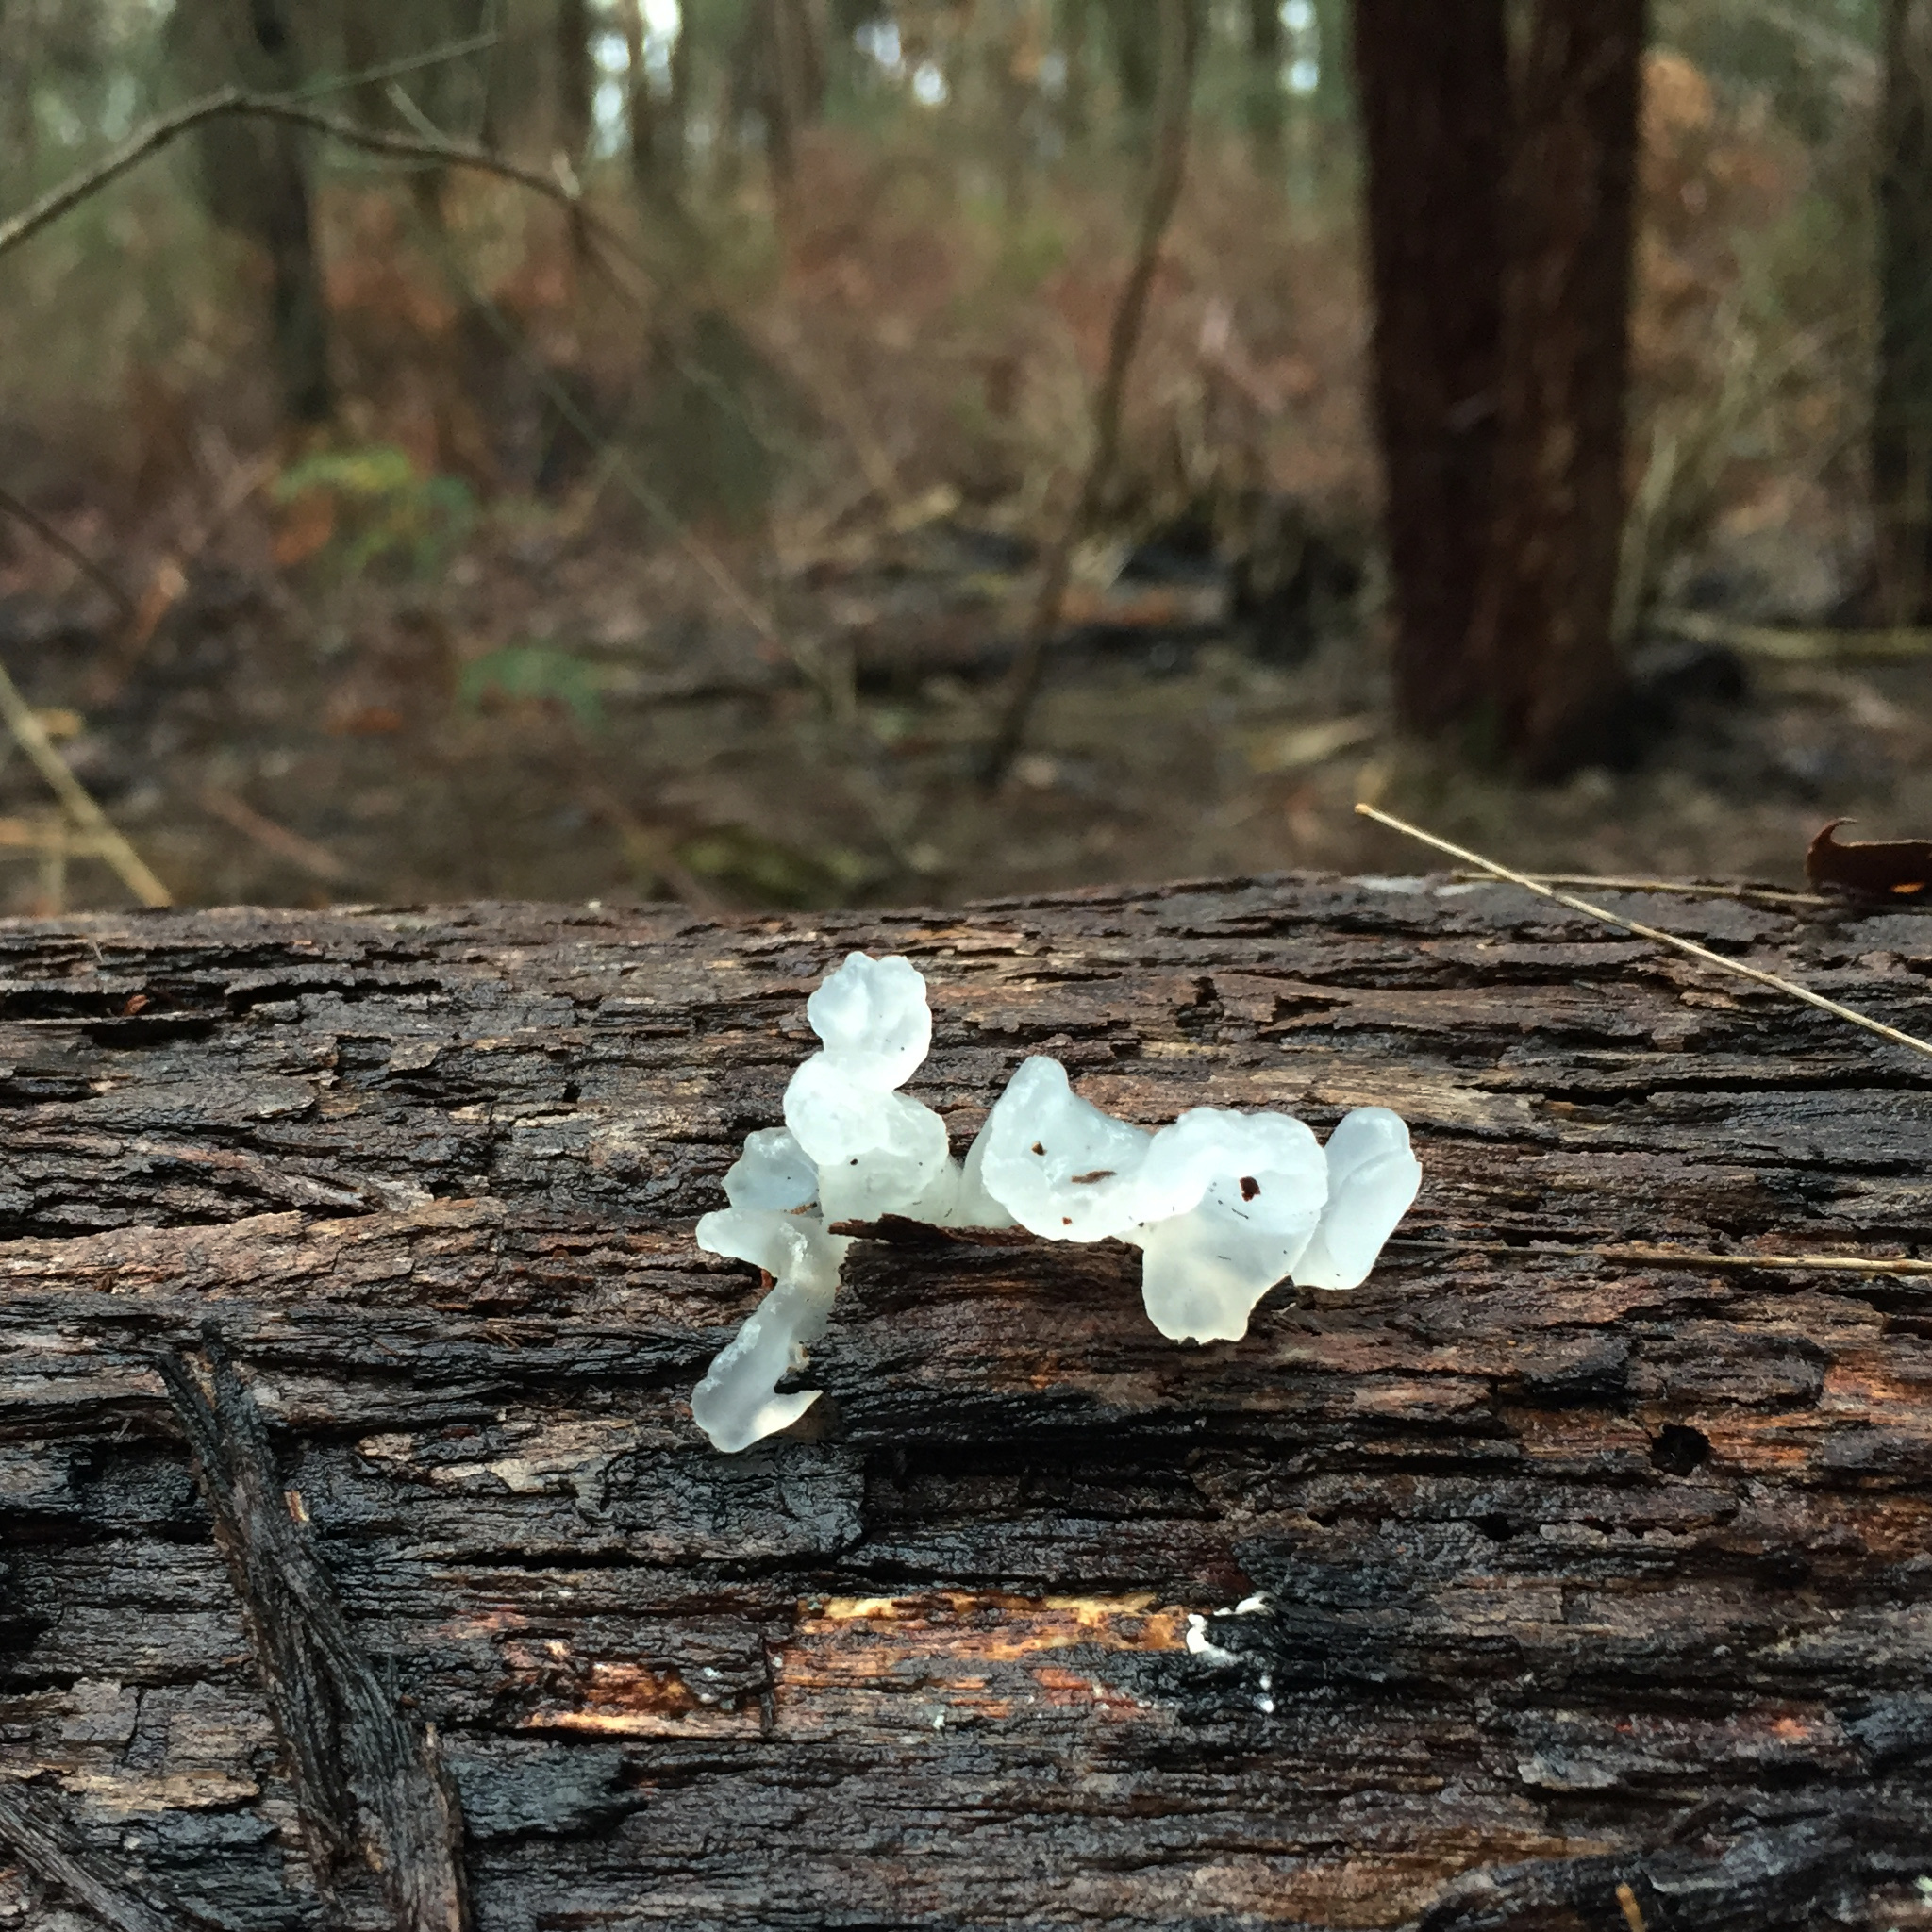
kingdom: Fungi
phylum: Basidiomycota
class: Tremellomycetes
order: Tremellales
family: Tremellaceae
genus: Tremella
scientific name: Tremella fuciformis
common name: Snow fungus
